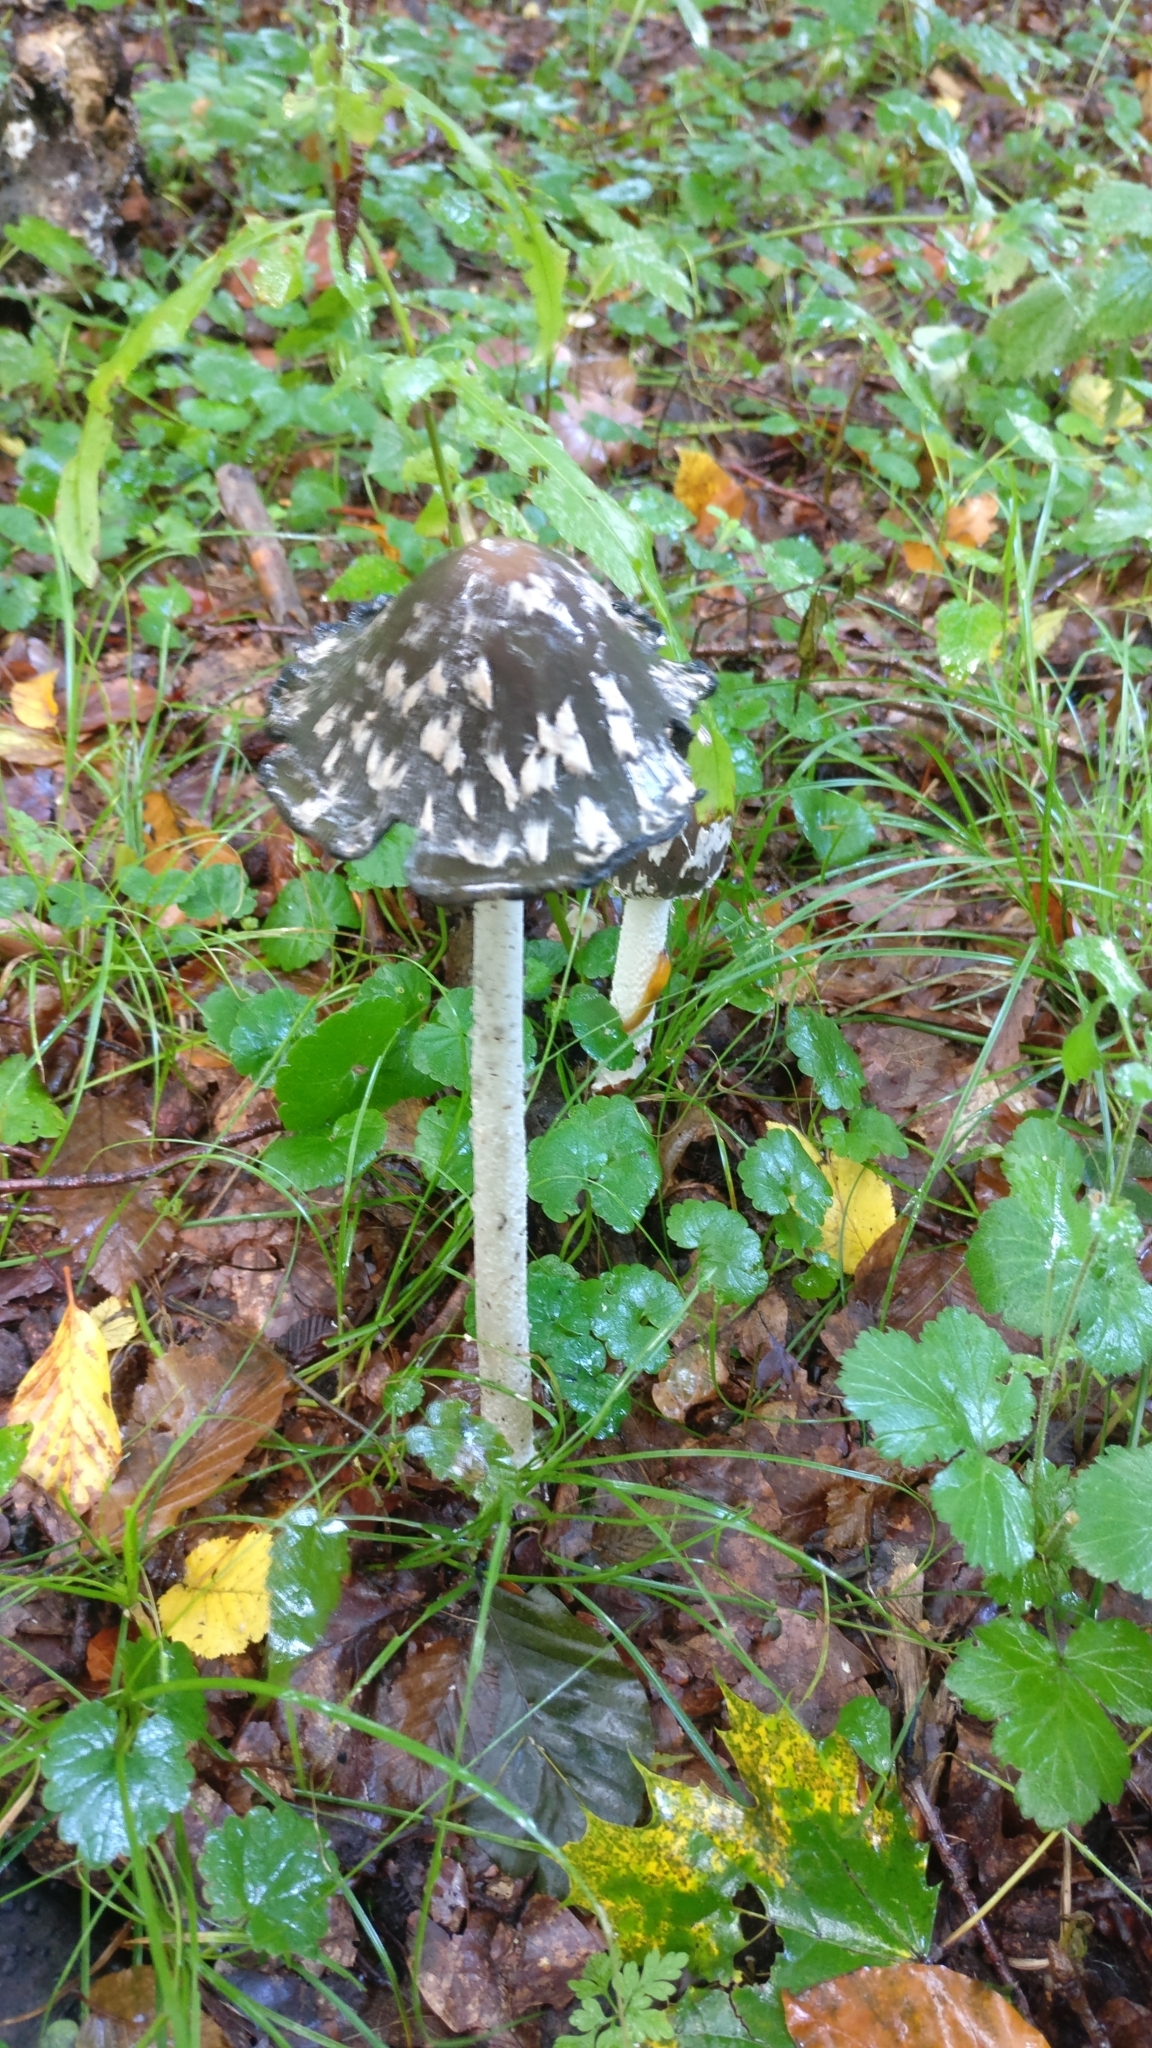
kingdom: Fungi
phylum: Basidiomycota
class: Agaricomycetes
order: Agaricales
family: Psathyrellaceae
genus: Coprinopsis
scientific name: Coprinopsis picacea
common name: Magpie inkcap
